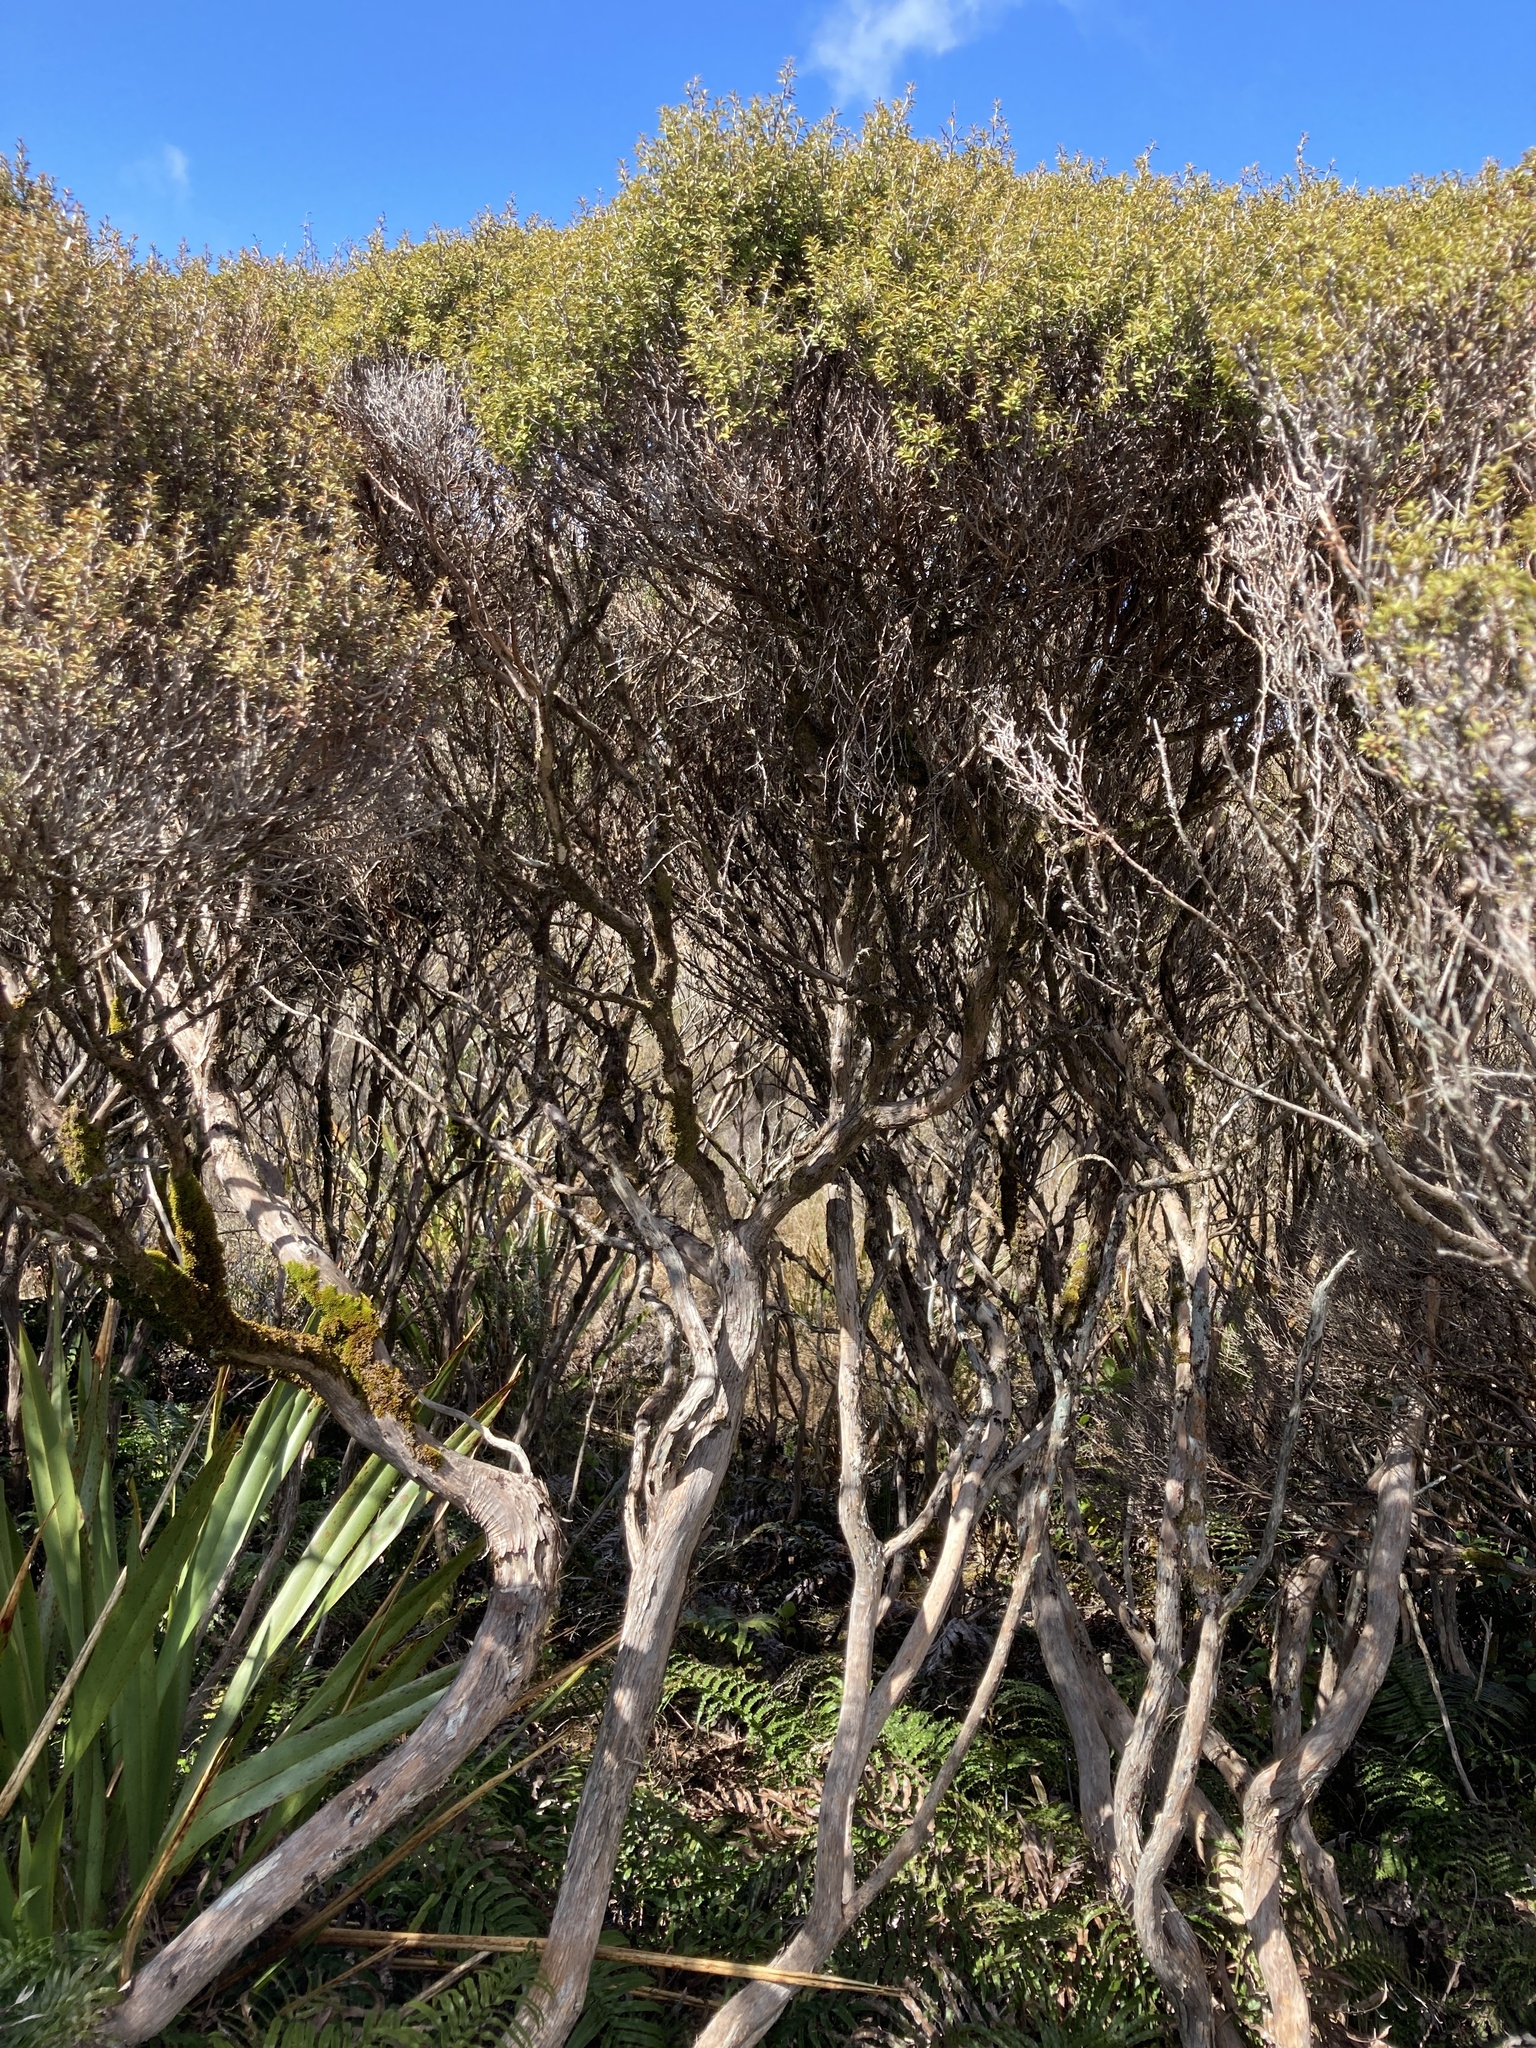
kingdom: Plantae
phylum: Tracheophyta
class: Magnoliopsida
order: Myrtales
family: Myrtaceae
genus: Leptospermum
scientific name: Leptospermum scoparium
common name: Broom tea-tree
